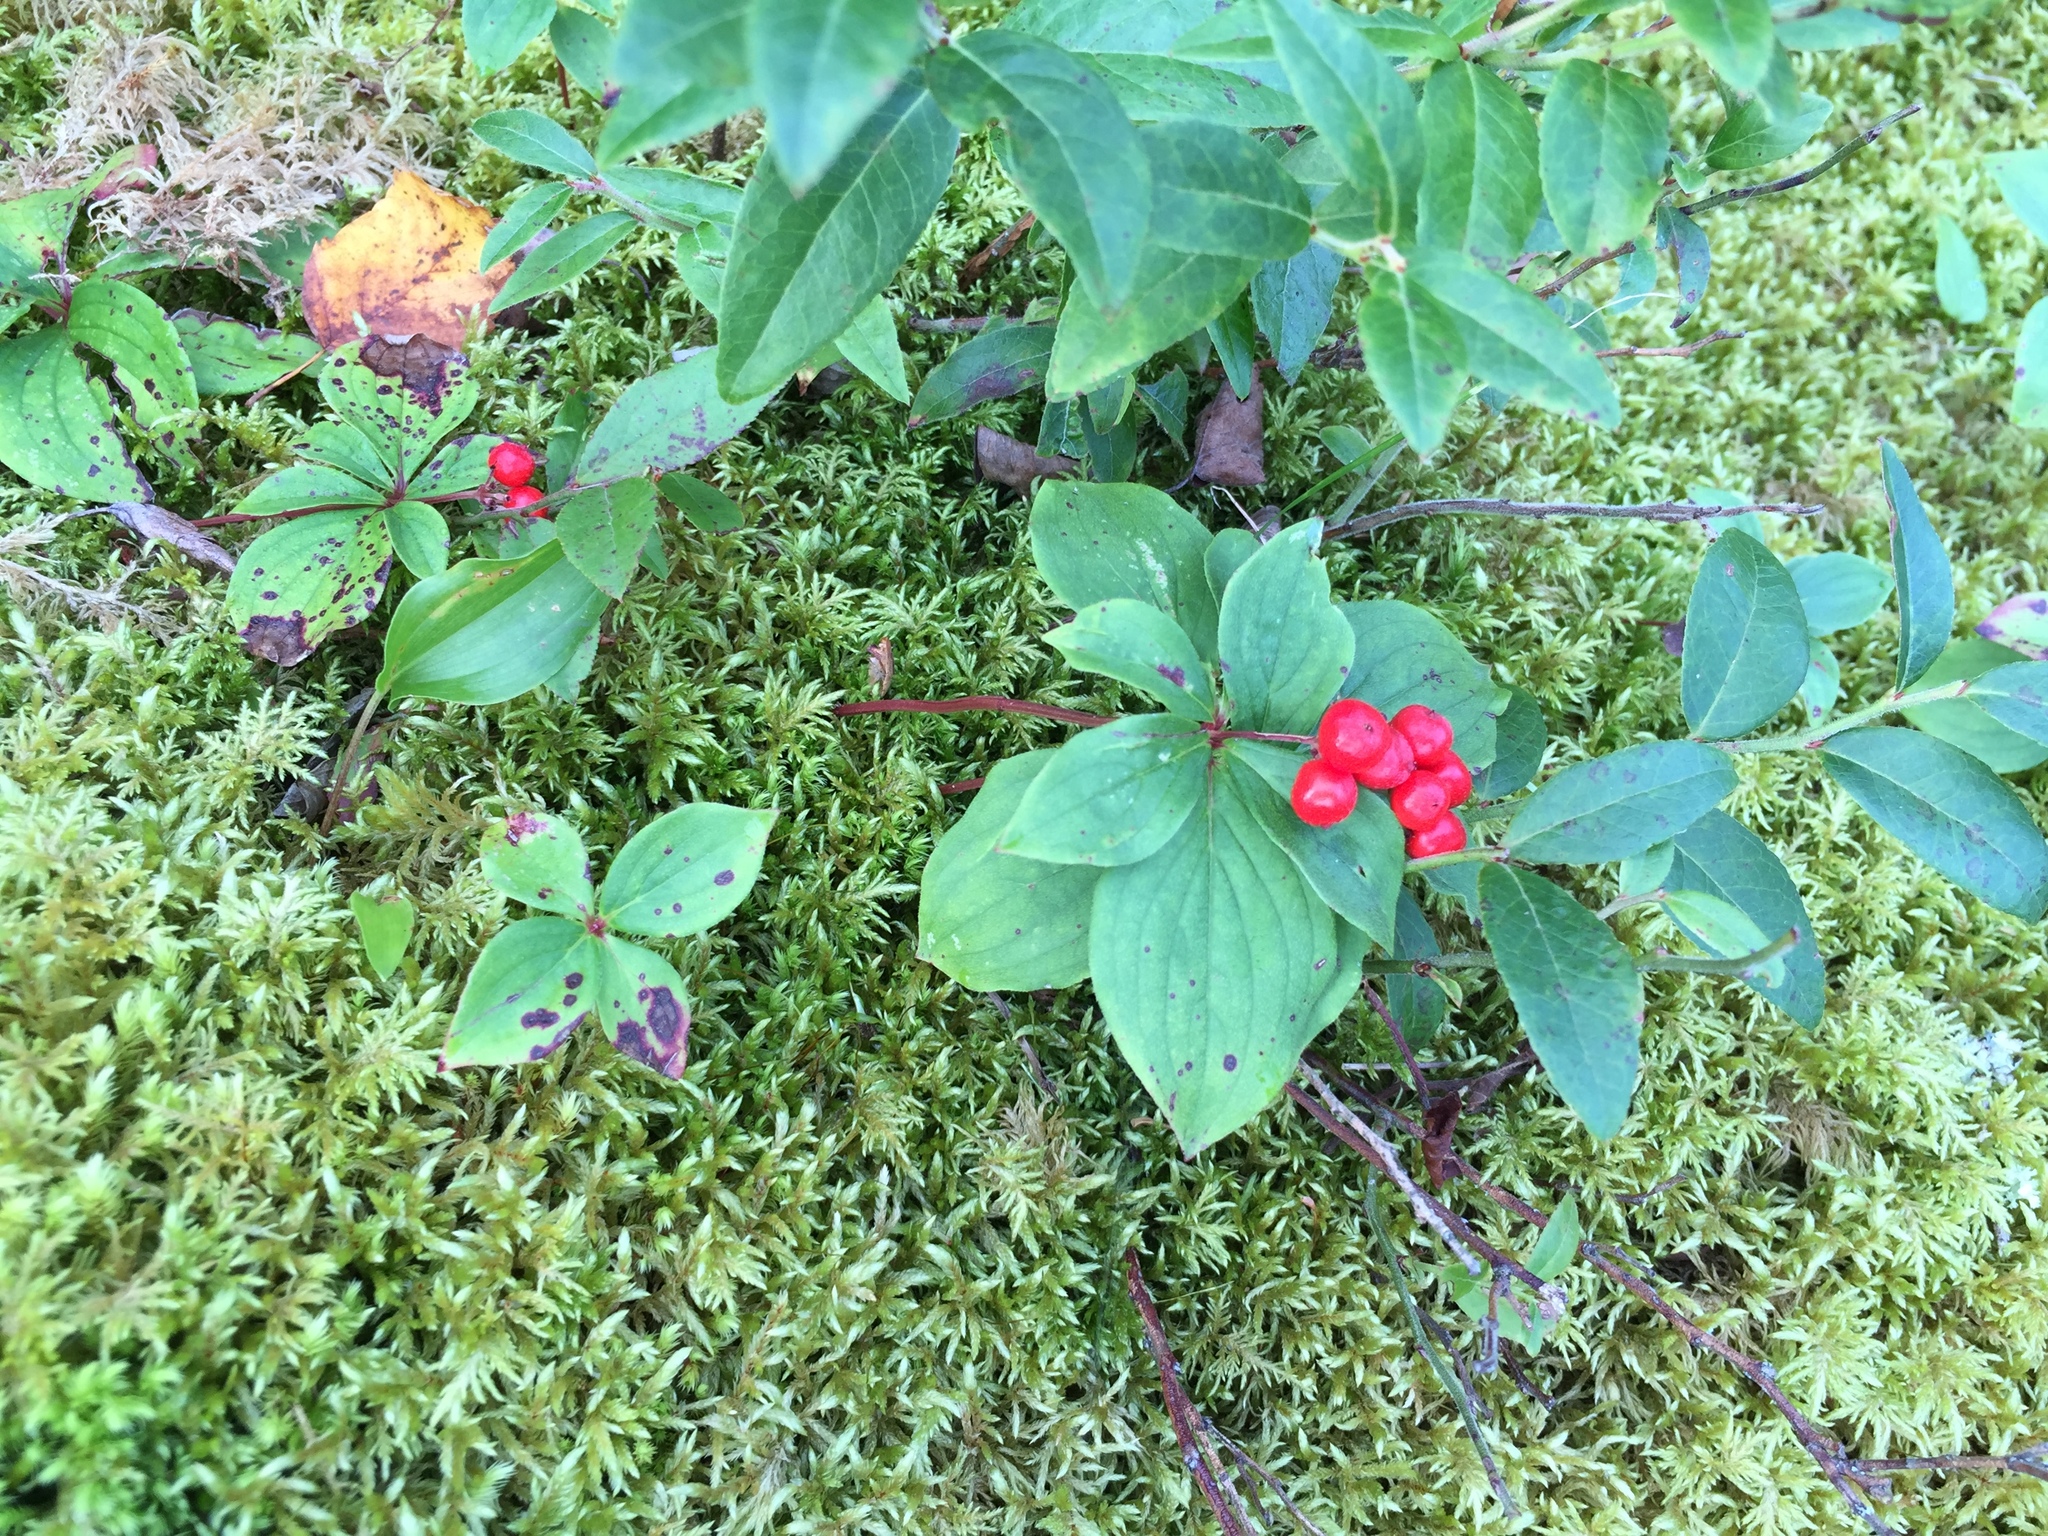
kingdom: Plantae
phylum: Tracheophyta
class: Magnoliopsida
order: Cornales
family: Cornaceae
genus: Cornus
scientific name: Cornus canadensis
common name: Creeping dogwood
